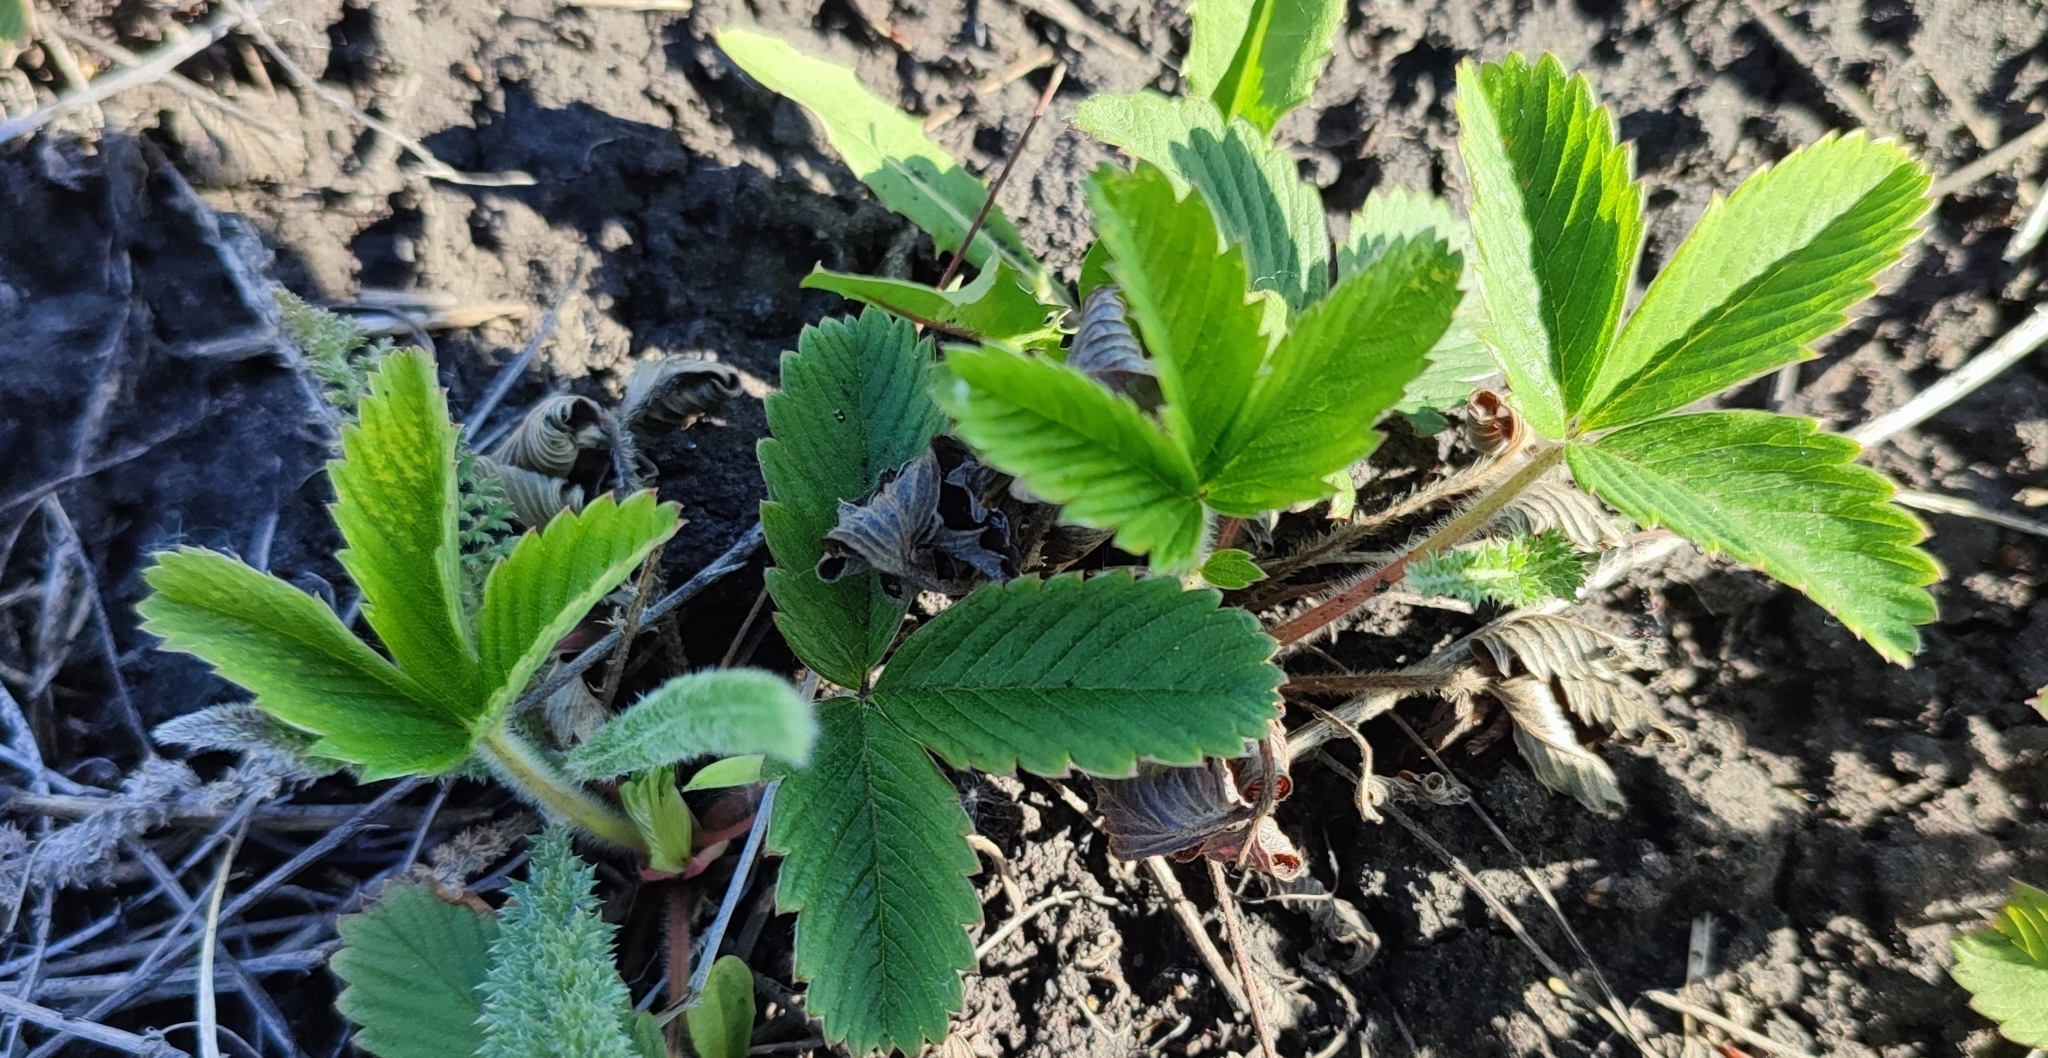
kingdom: Plantae
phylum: Tracheophyta
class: Magnoliopsida
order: Rosales
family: Rosaceae
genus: Fragaria
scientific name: Fragaria viridis
